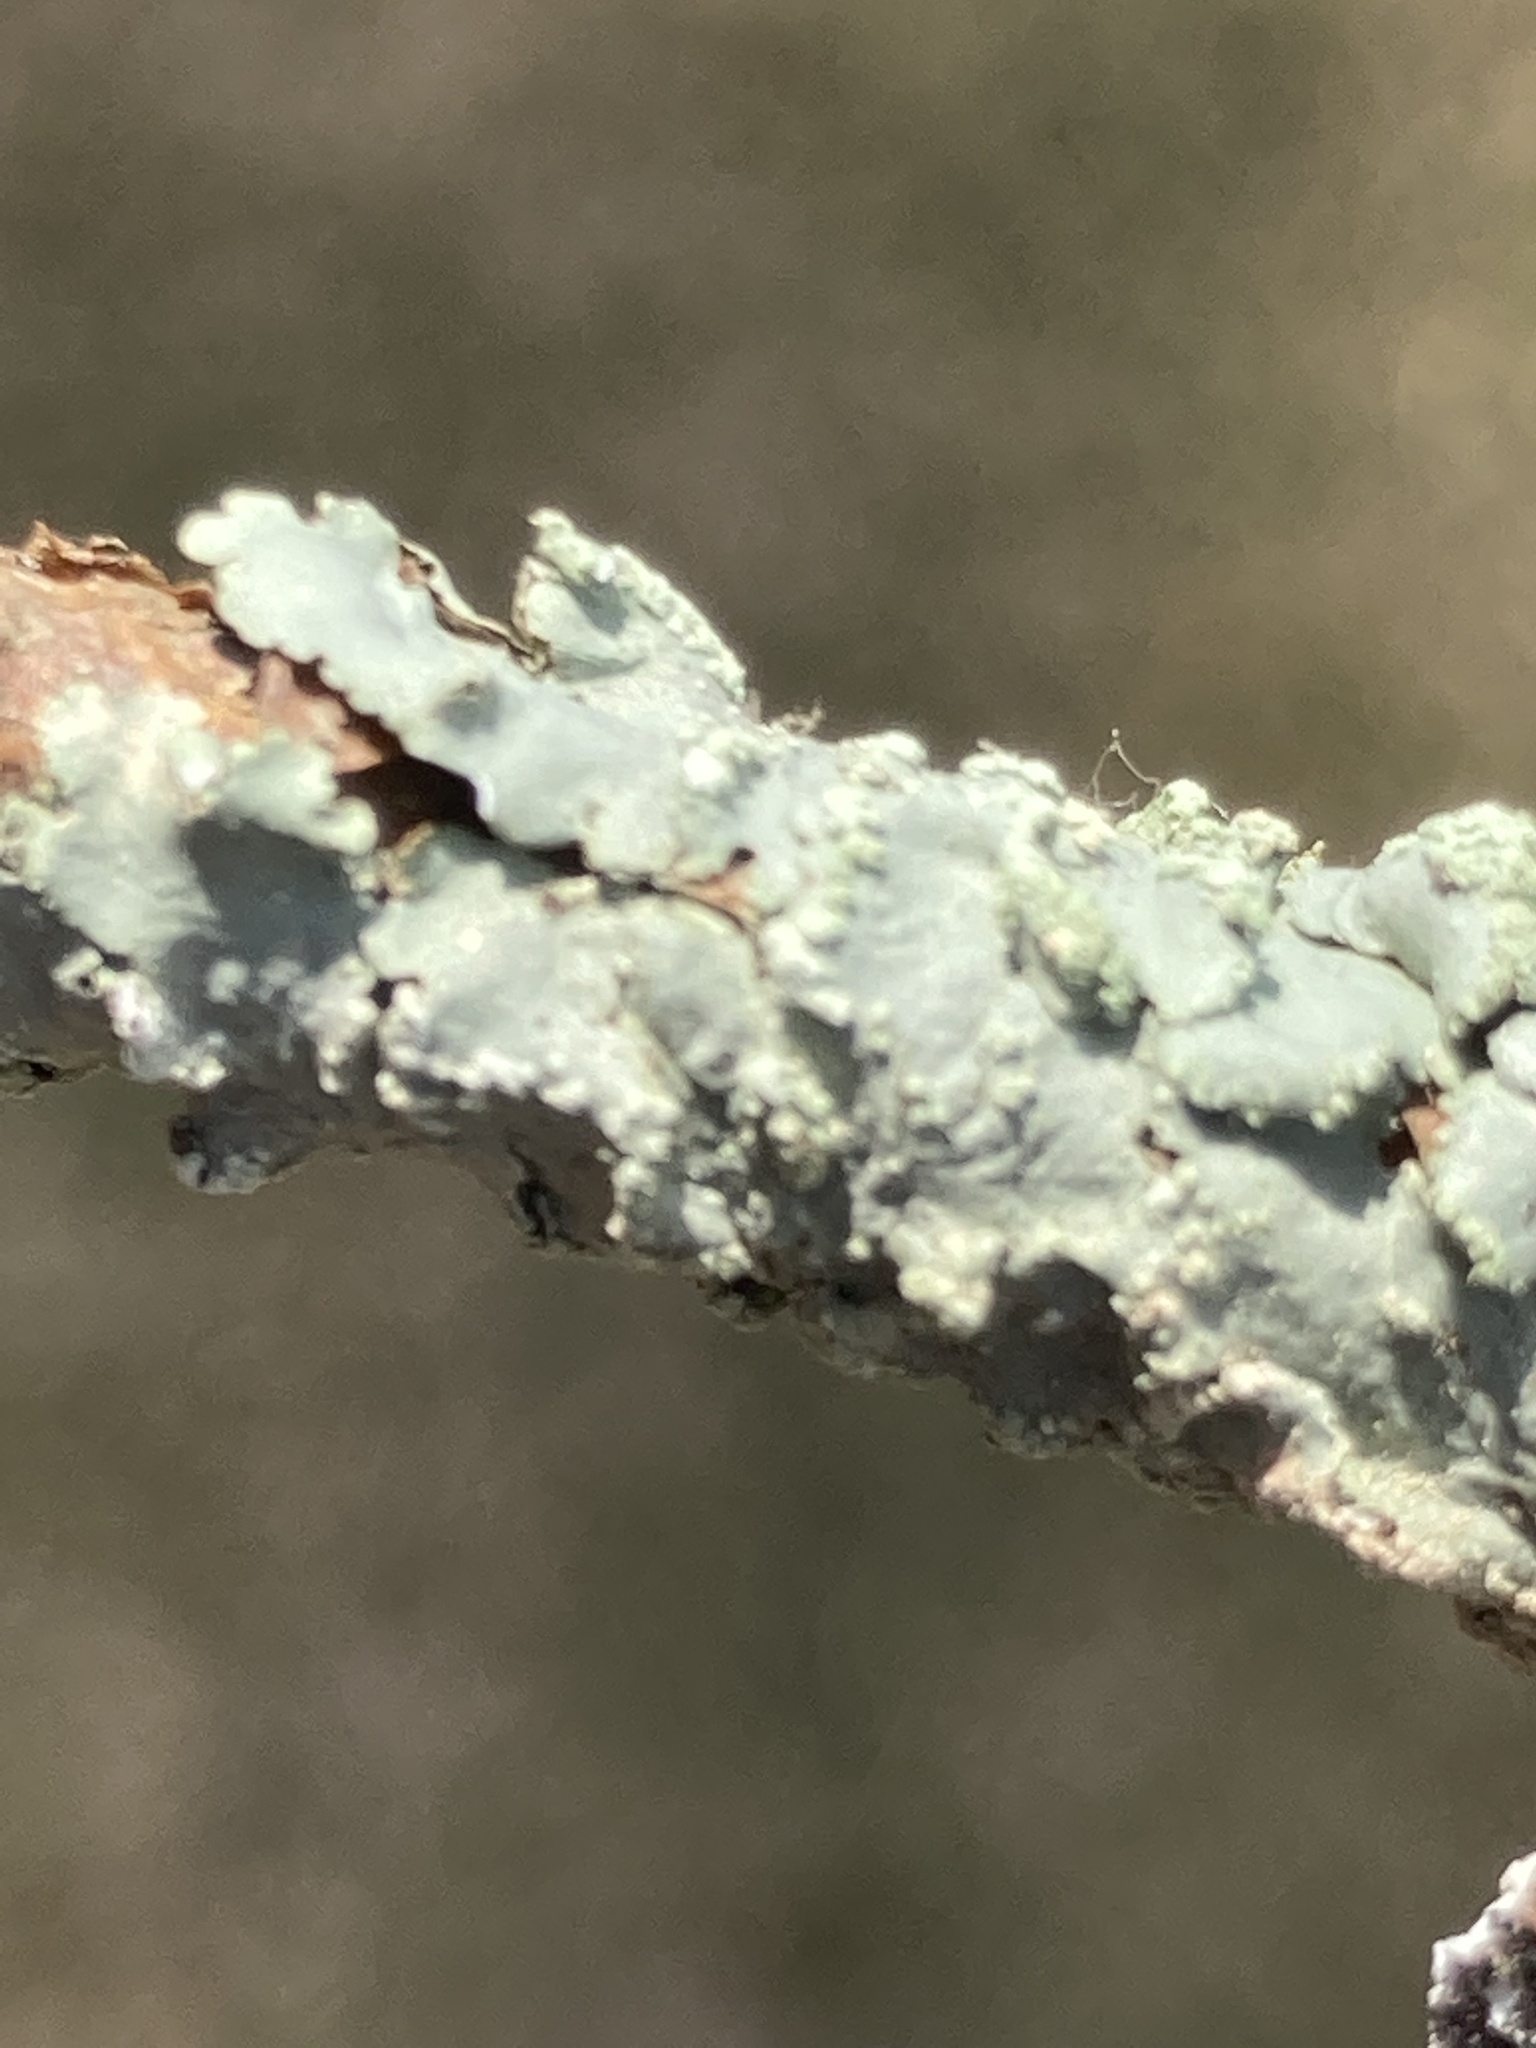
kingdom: Fungi
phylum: Ascomycota
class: Lecanoromycetes
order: Lecanorales
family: Parmeliaceae
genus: Canoparmelia
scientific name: Canoparmelia texana
